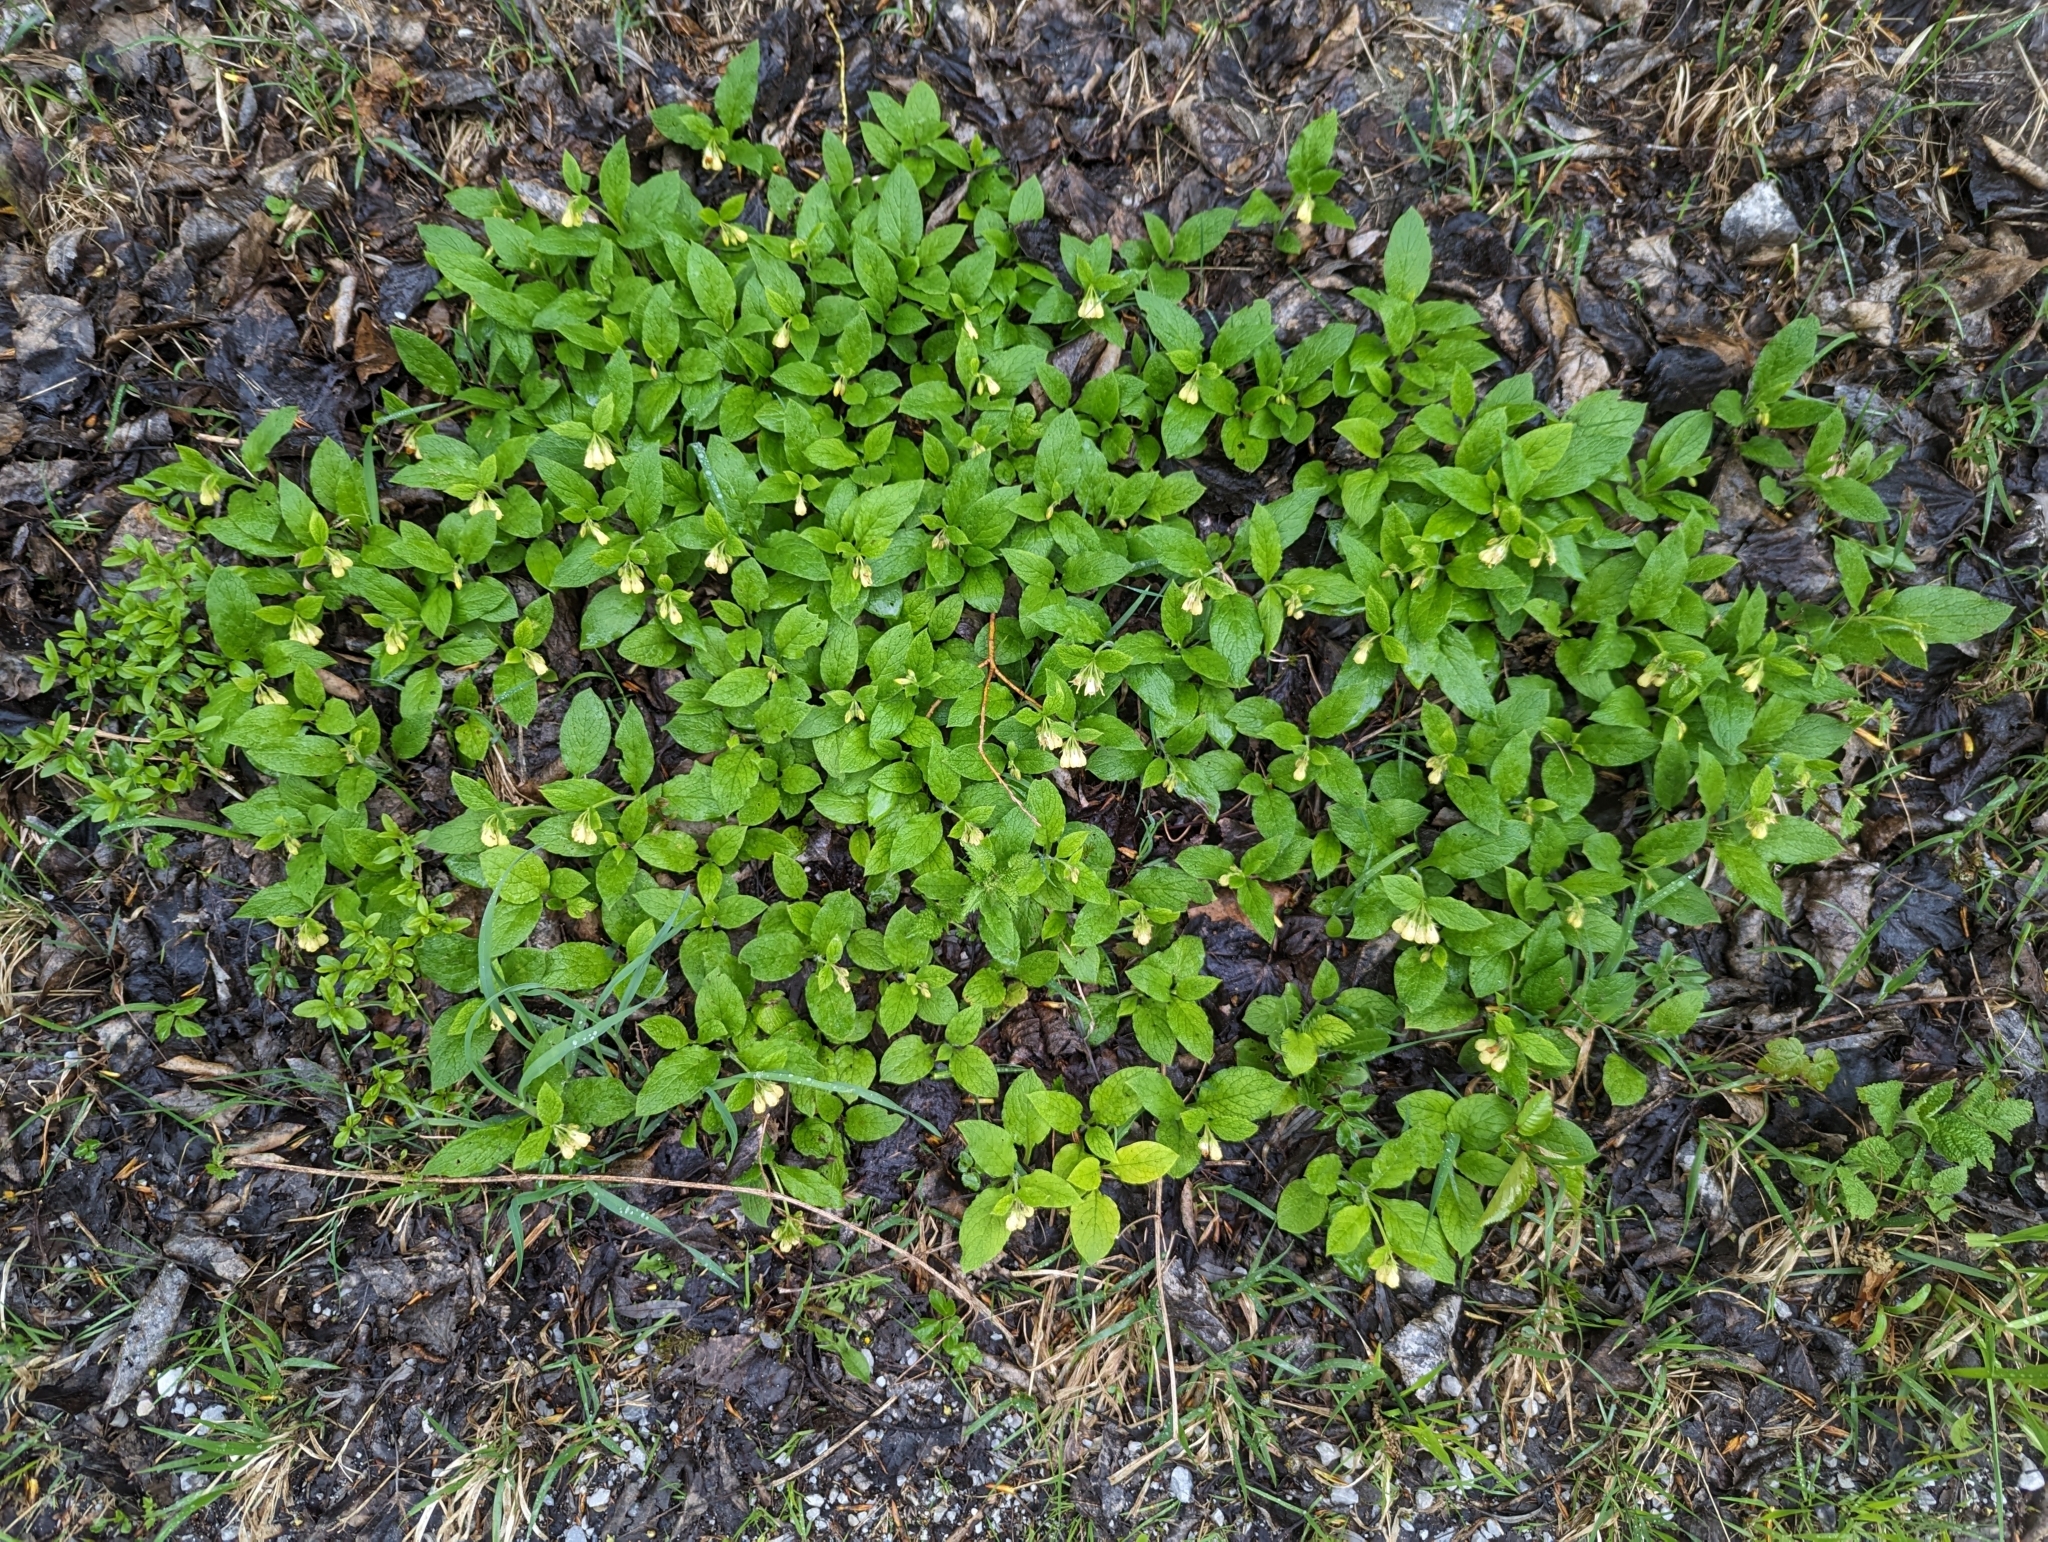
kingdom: Plantae
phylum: Tracheophyta
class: Magnoliopsida
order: Boraginales
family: Boraginaceae
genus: Symphytum
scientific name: Symphytum tuberosum
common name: Tuberous comfrey
